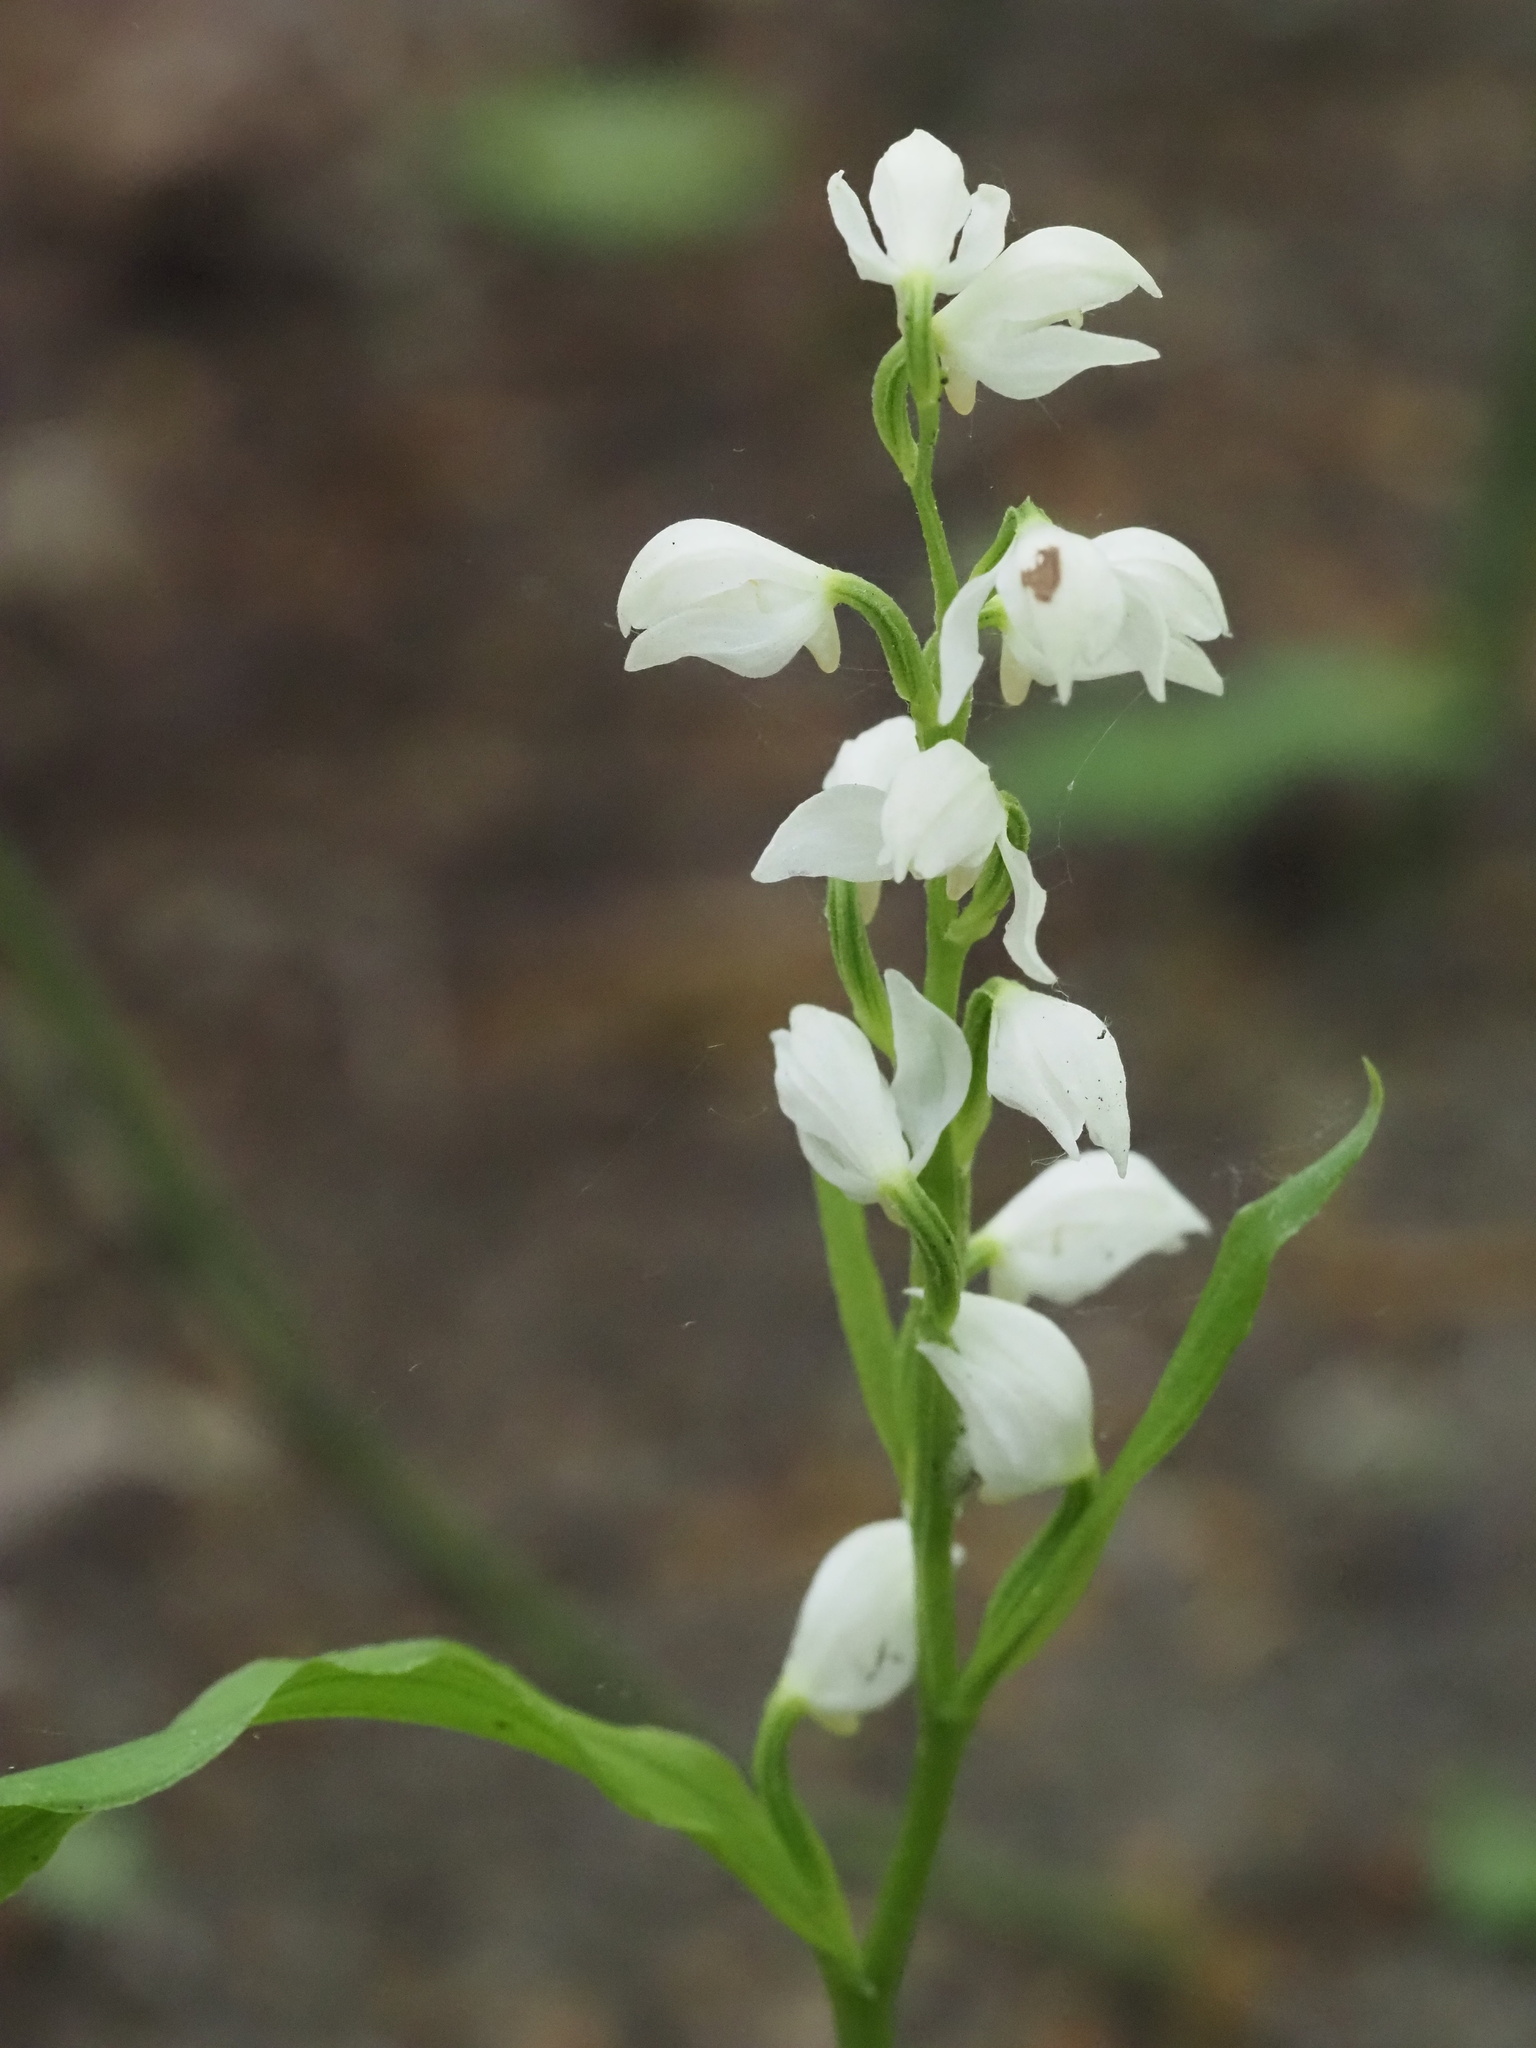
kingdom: Plantae
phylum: Tracheophyta
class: Liliopsida
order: Asparagales
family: Orchidaceae
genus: Cephalanthera
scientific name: Cephalanthera erecta
